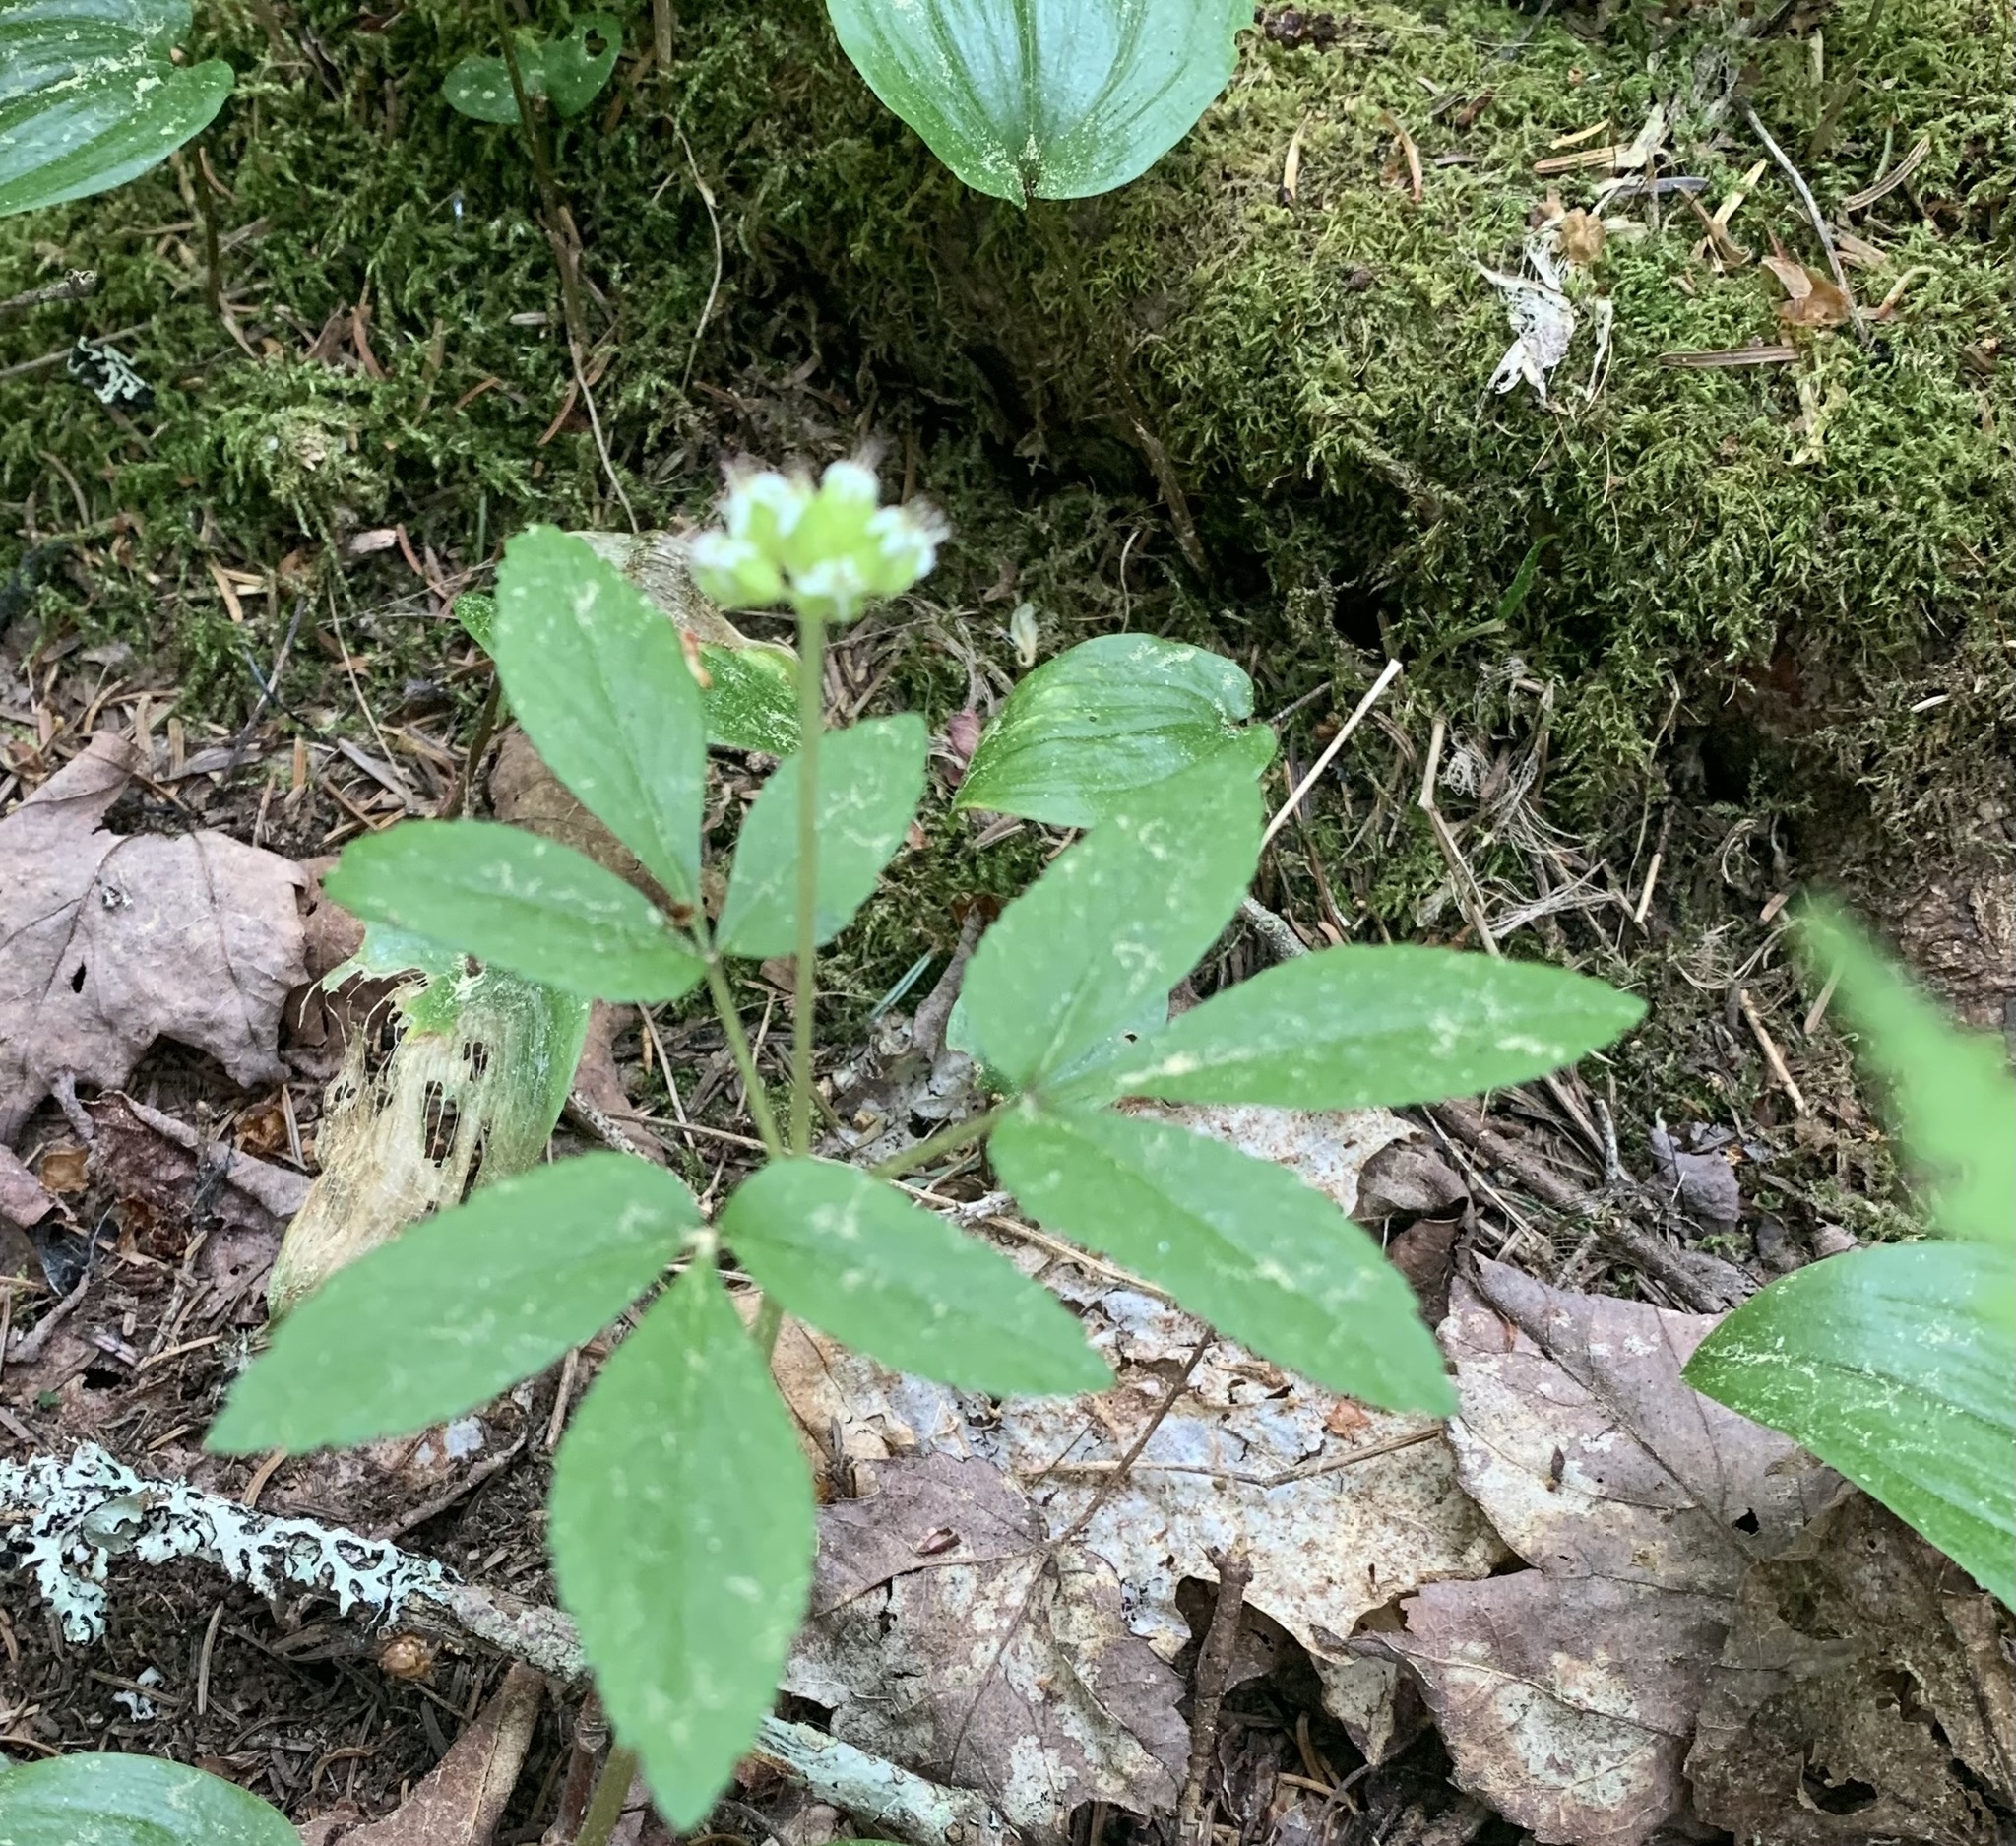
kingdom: Plantae
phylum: Tracheophyta
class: Magnoliopsida
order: Apiales
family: Araliaceae
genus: Panax
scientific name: Panax trifolius
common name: Dwarf ginseng
